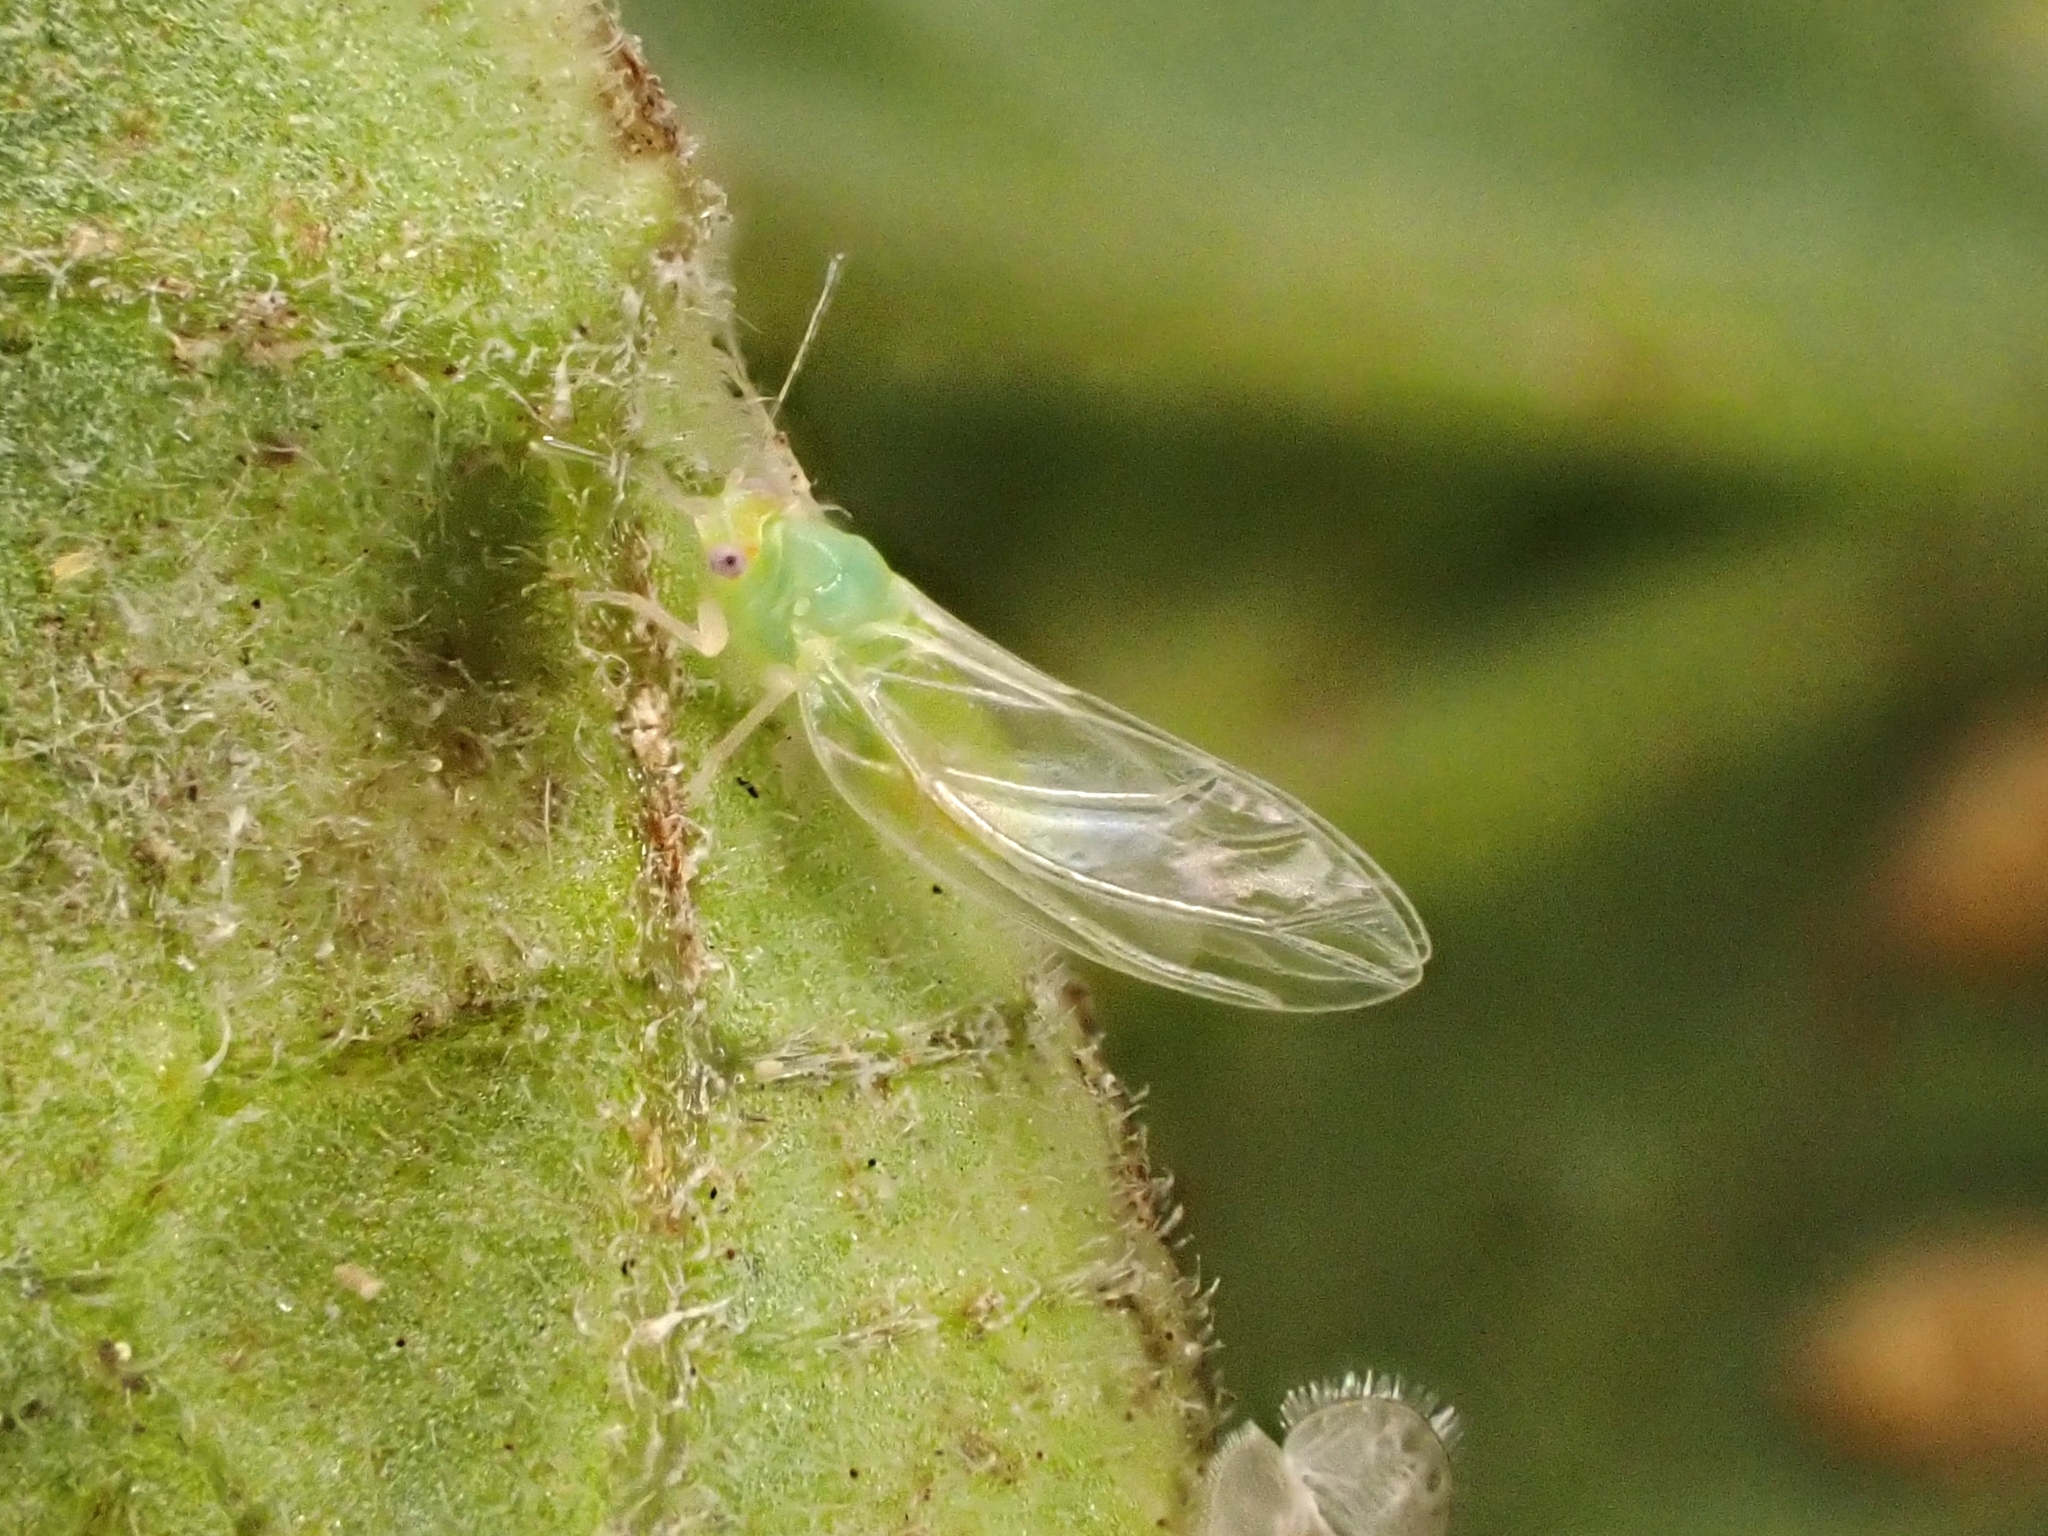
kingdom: Animalia
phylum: Arthropoda
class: Insecta
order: Hemiptera
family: Triozidae
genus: Bactericera
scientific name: Bactericera cockerelli
